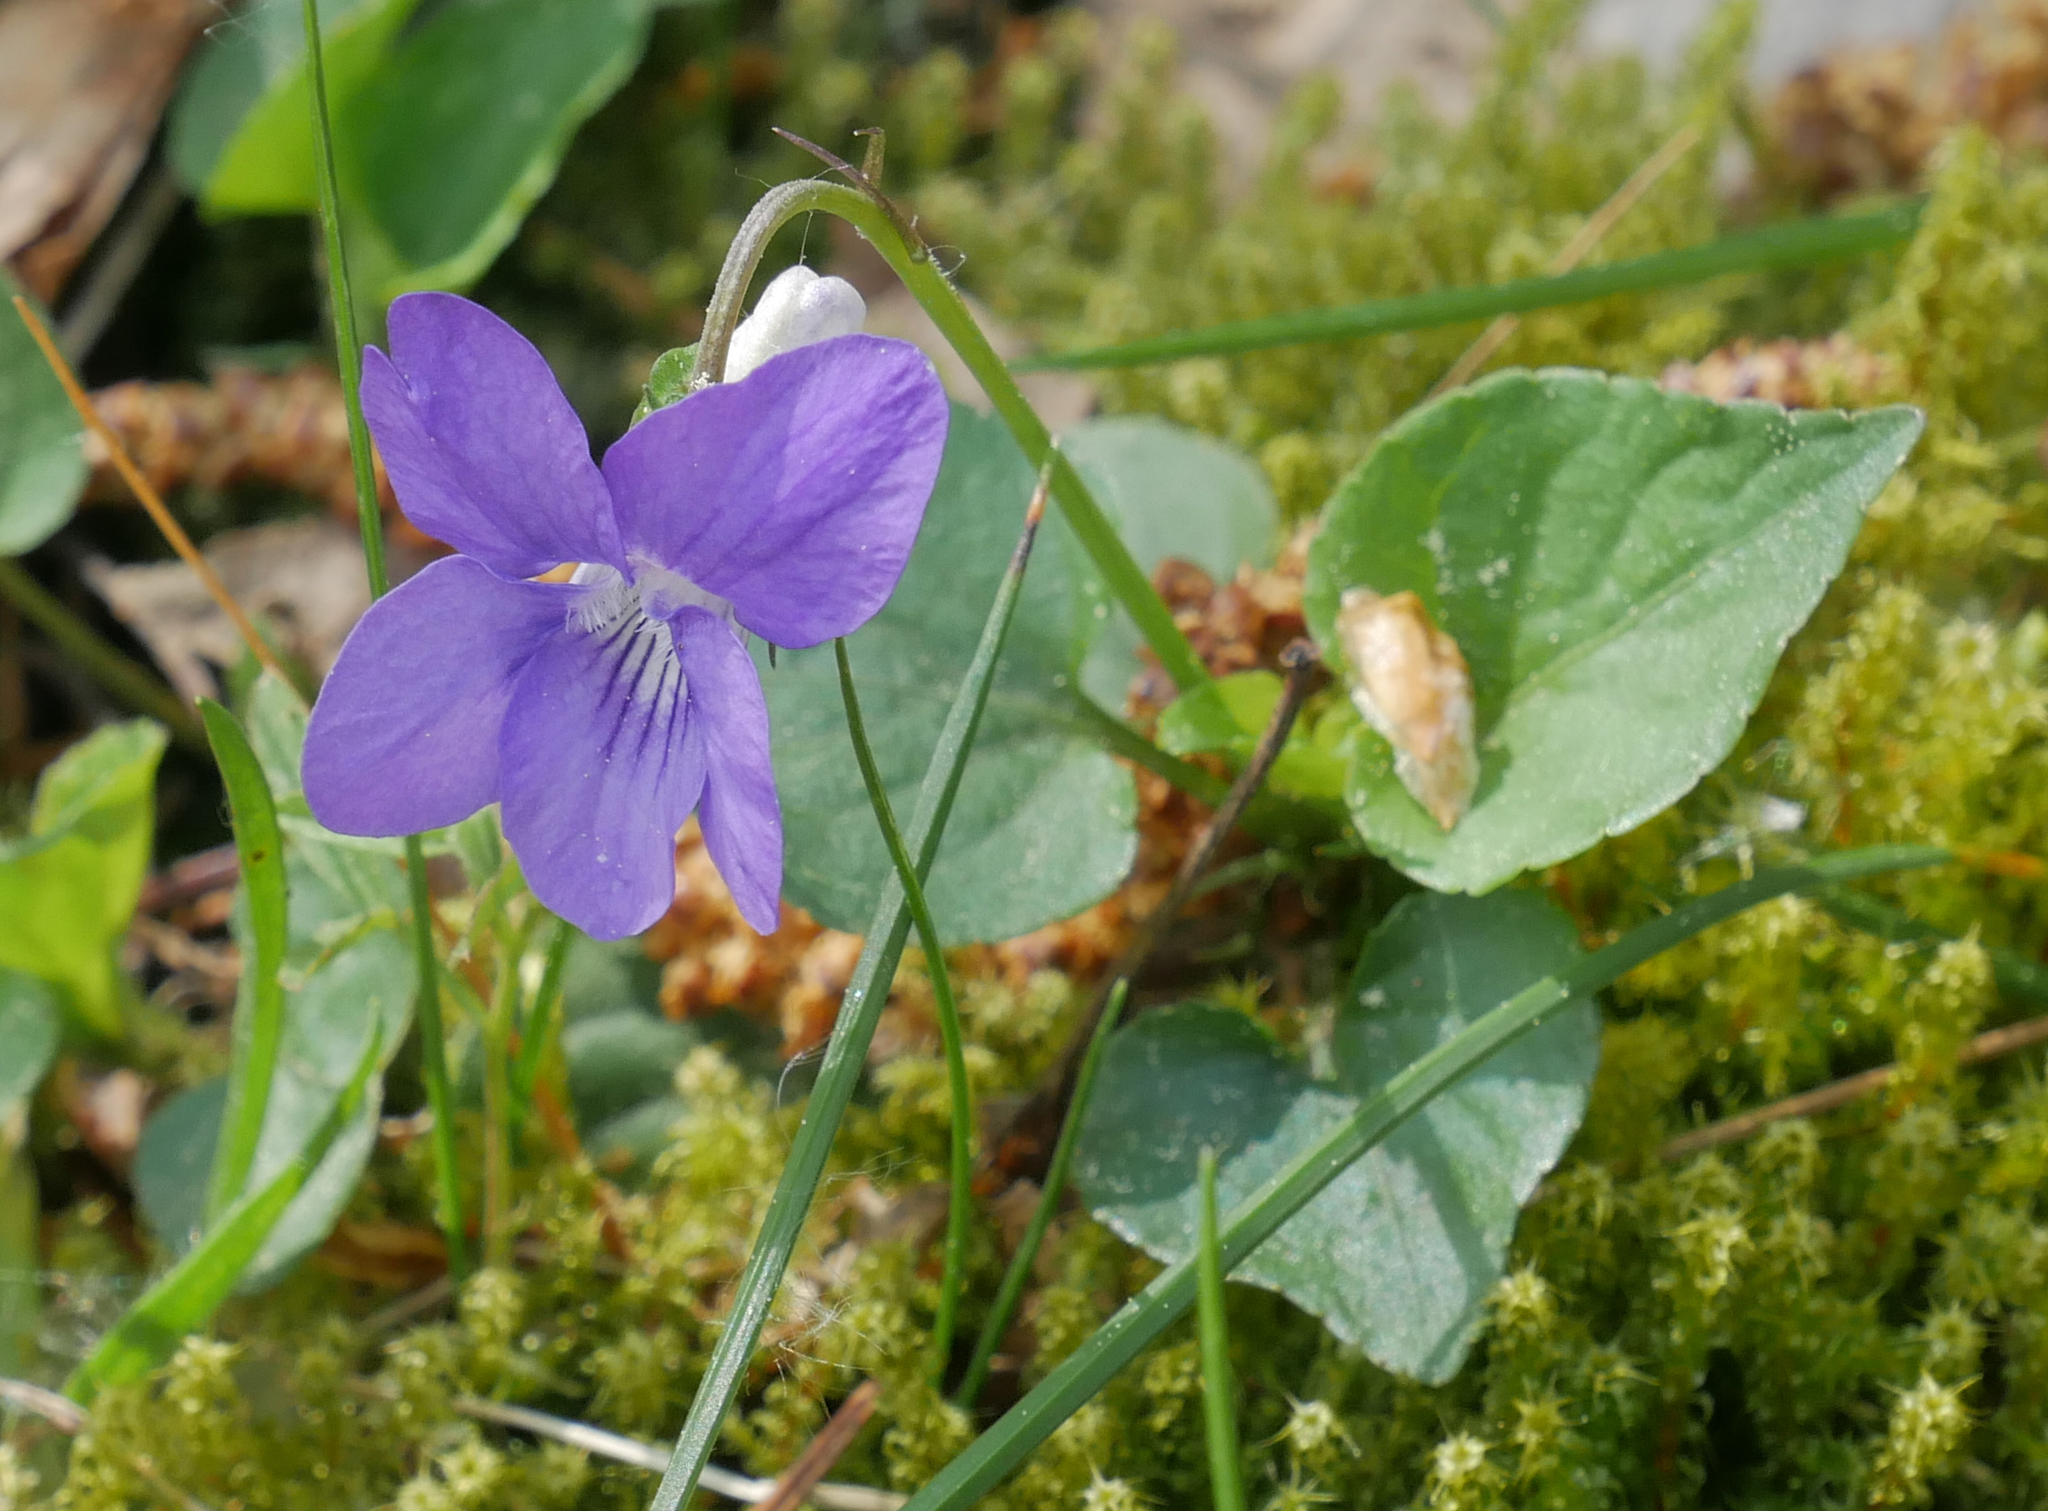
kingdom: Plantae
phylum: Tracheophyta
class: Magnoliopsida
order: Malpighiales
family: Violaceae
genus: Viola
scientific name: Viola riviniana
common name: Common dog-violet
